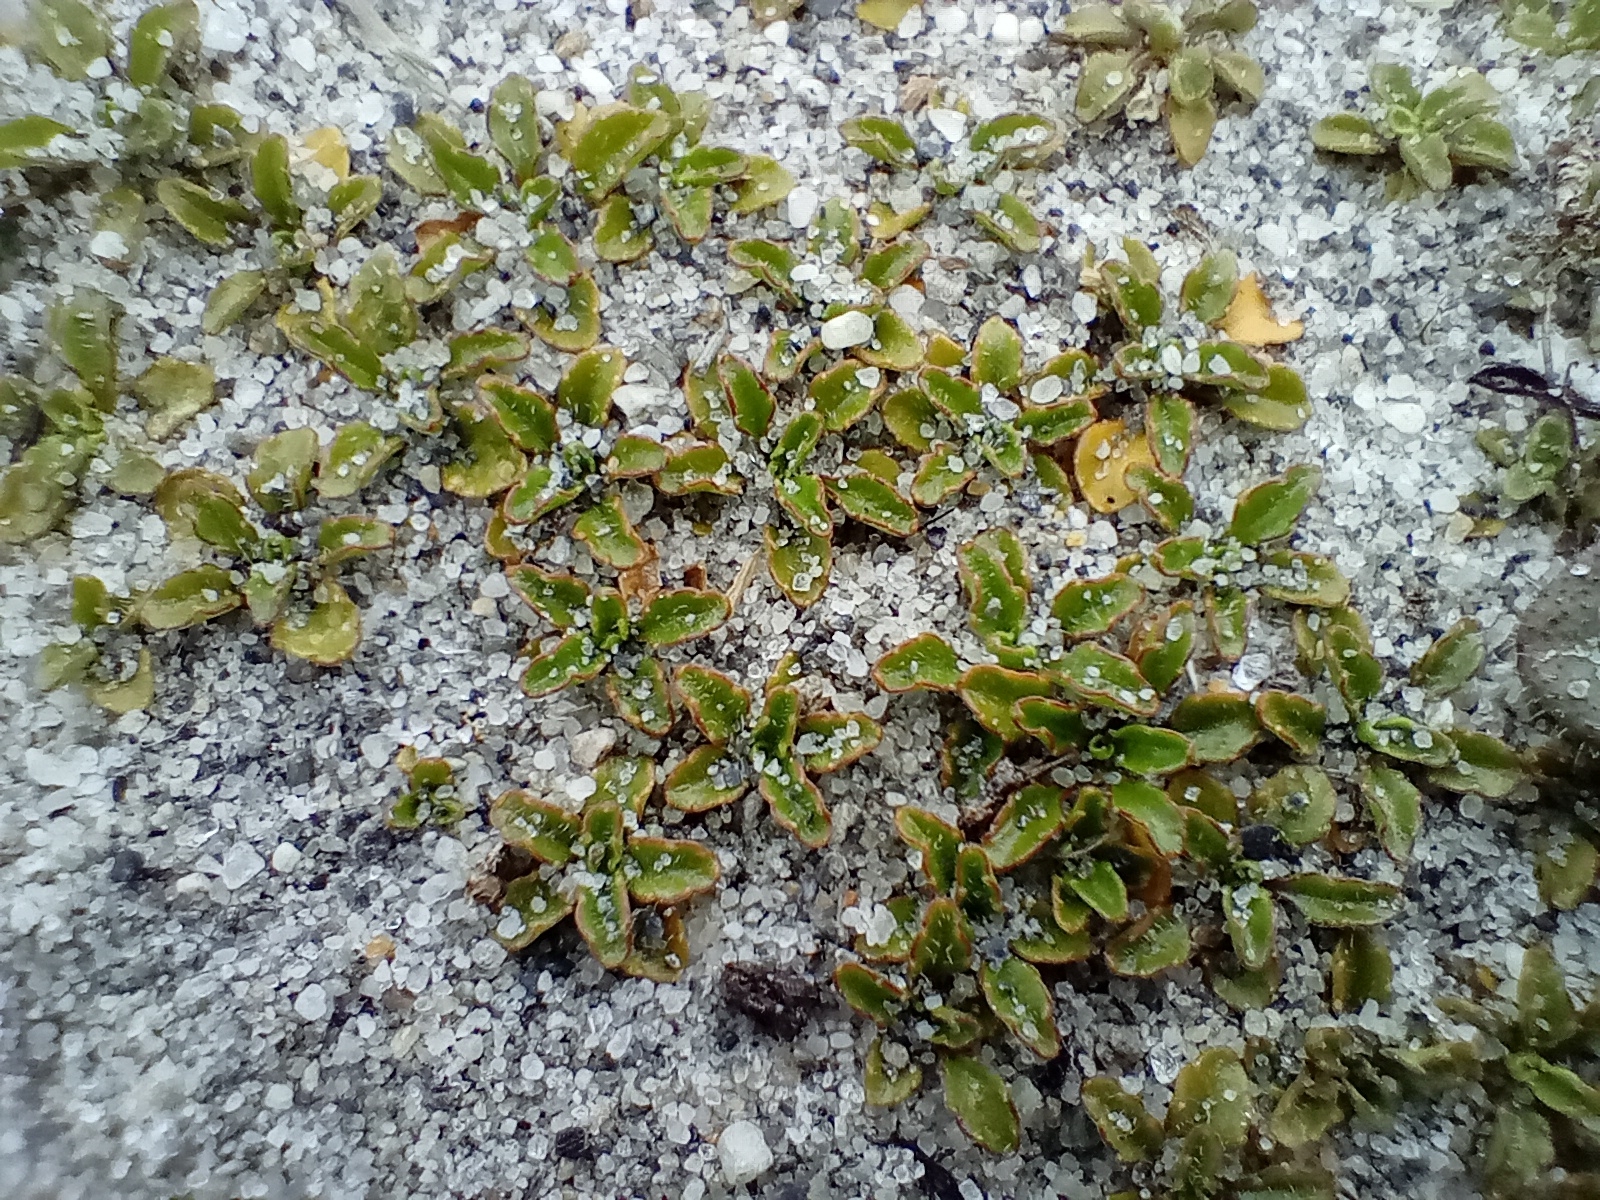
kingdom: Plantae
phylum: Tracheophyta
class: Magnoliopsida
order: Asterales
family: Campanulaceae
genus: Wahlenbergia
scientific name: Wahlenbergia congesta
